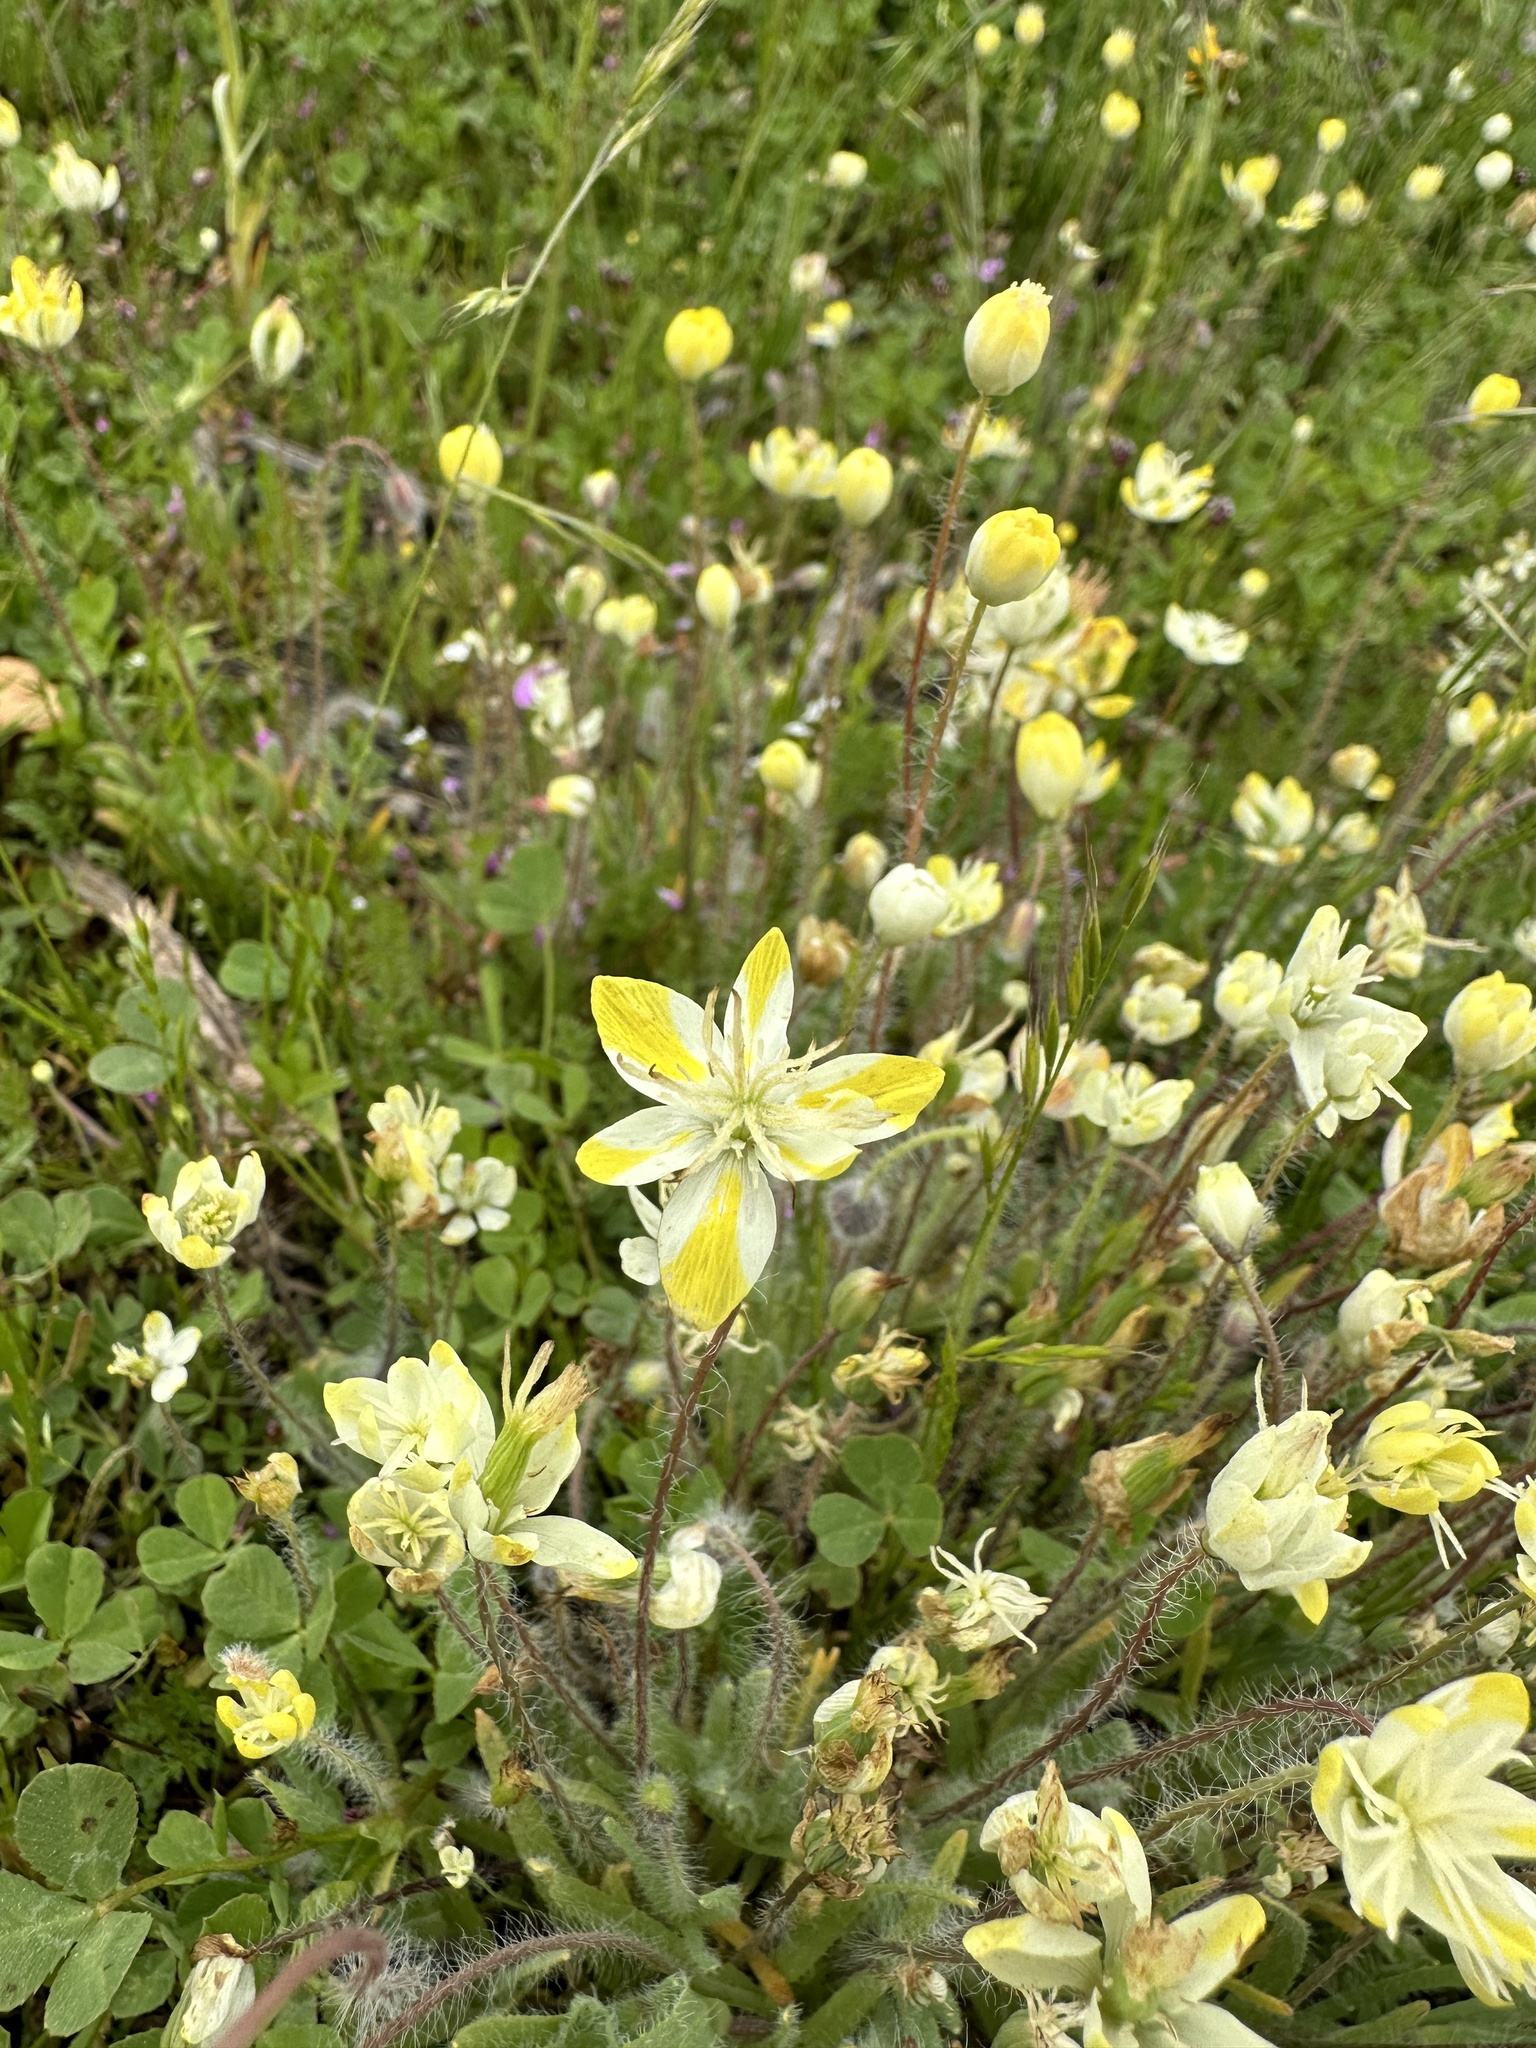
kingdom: Plantae
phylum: Tracheophyta
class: Magnoliopsida
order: Ranunculales
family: Papaveraceae
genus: Platystemon
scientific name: Platystemon californicus
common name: Cream-cups
